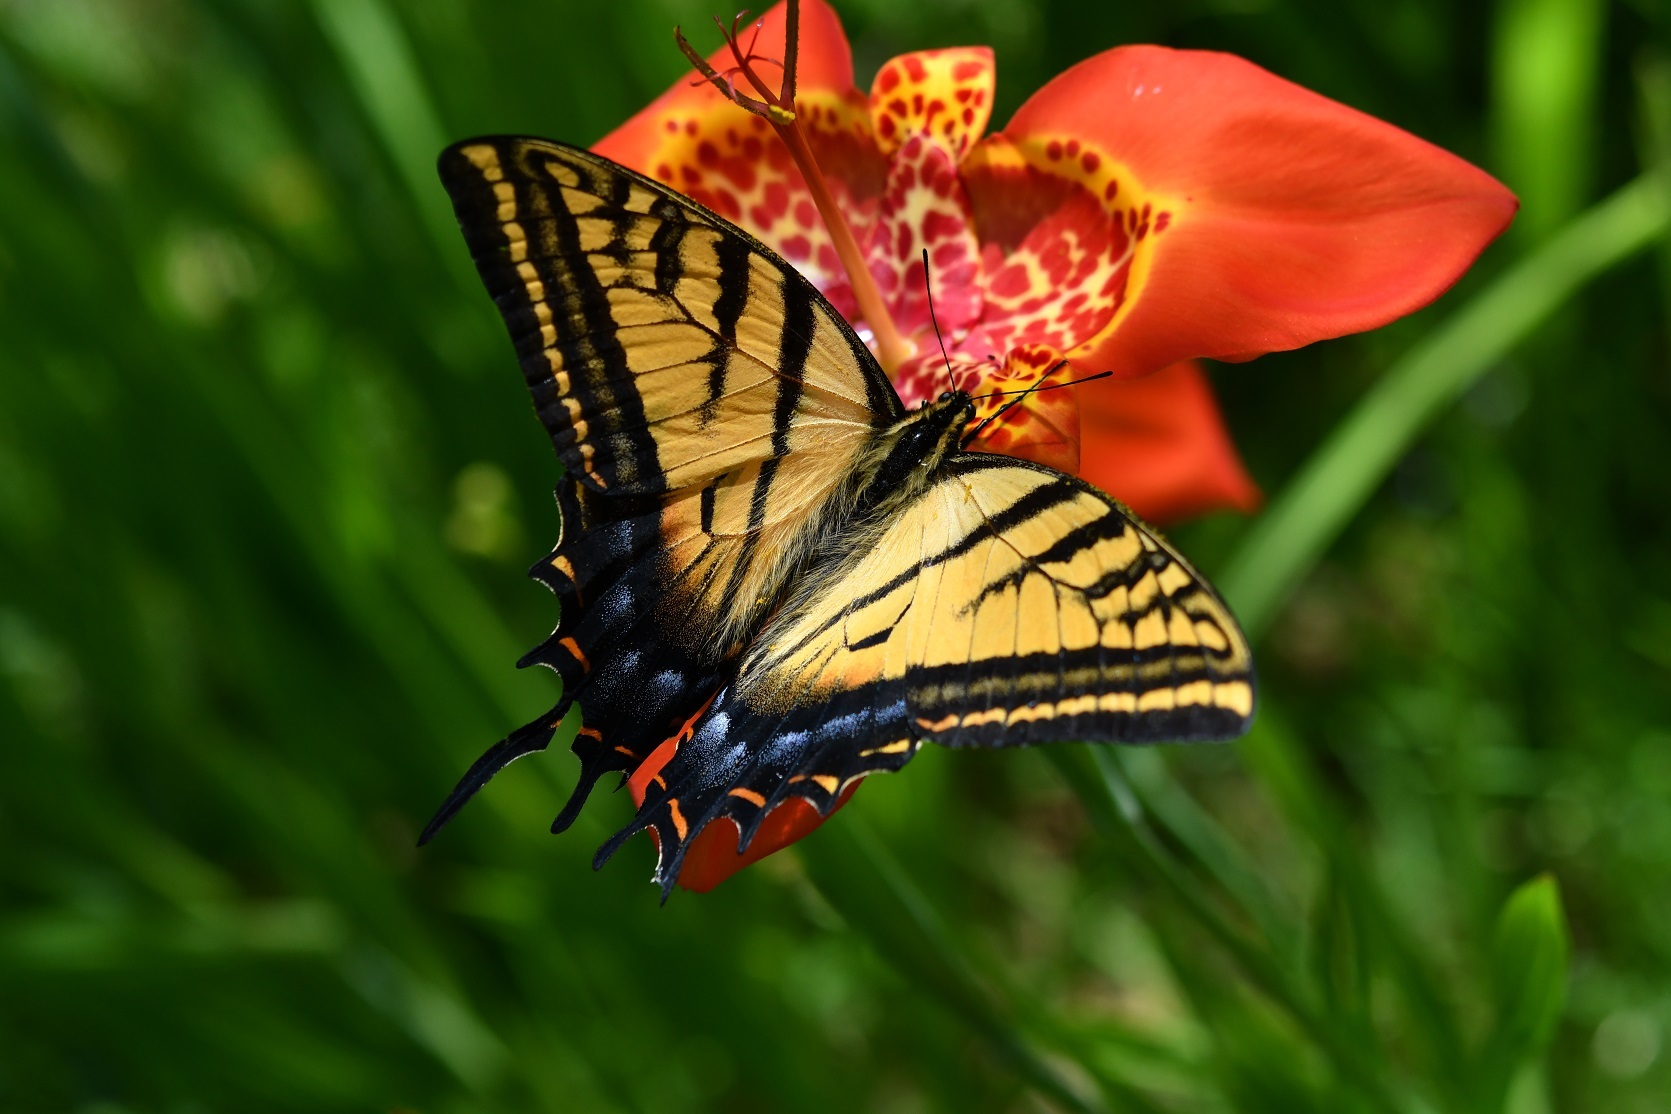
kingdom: Animalia
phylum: Arthropoda
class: Insecta
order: Lepidoptera
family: Papilionidae
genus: Papilio
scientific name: Papilio multicaudata
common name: Two-tailed tiger swallowtail
